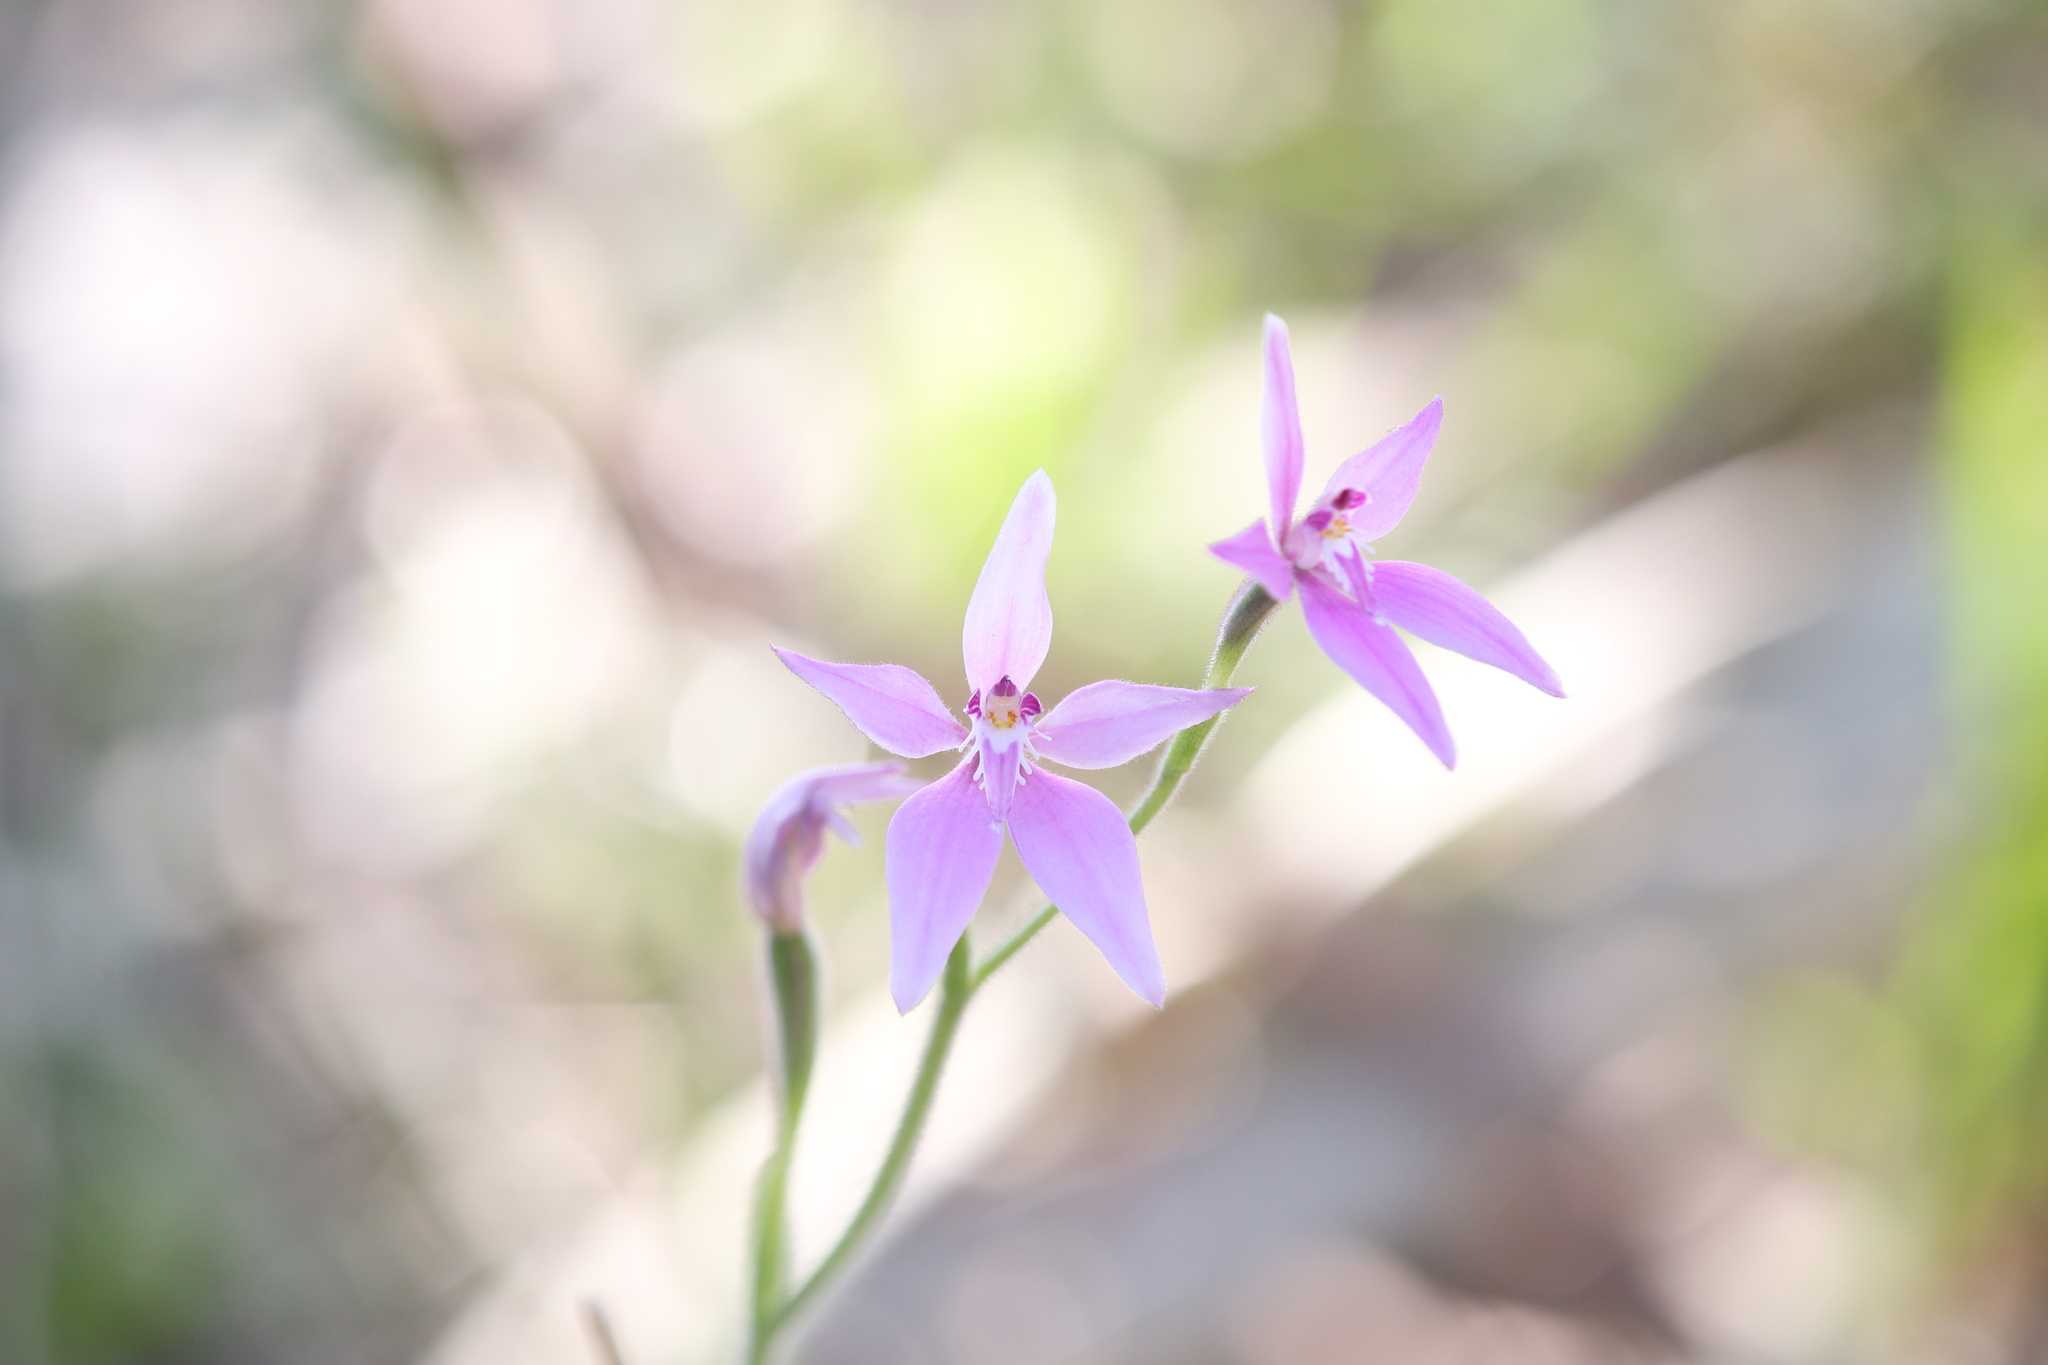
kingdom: Plantae
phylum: Tracheophyta
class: Liliopsida
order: Asparagales
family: Orchidaceae
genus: Caladenia
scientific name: Caladenia latifolia
